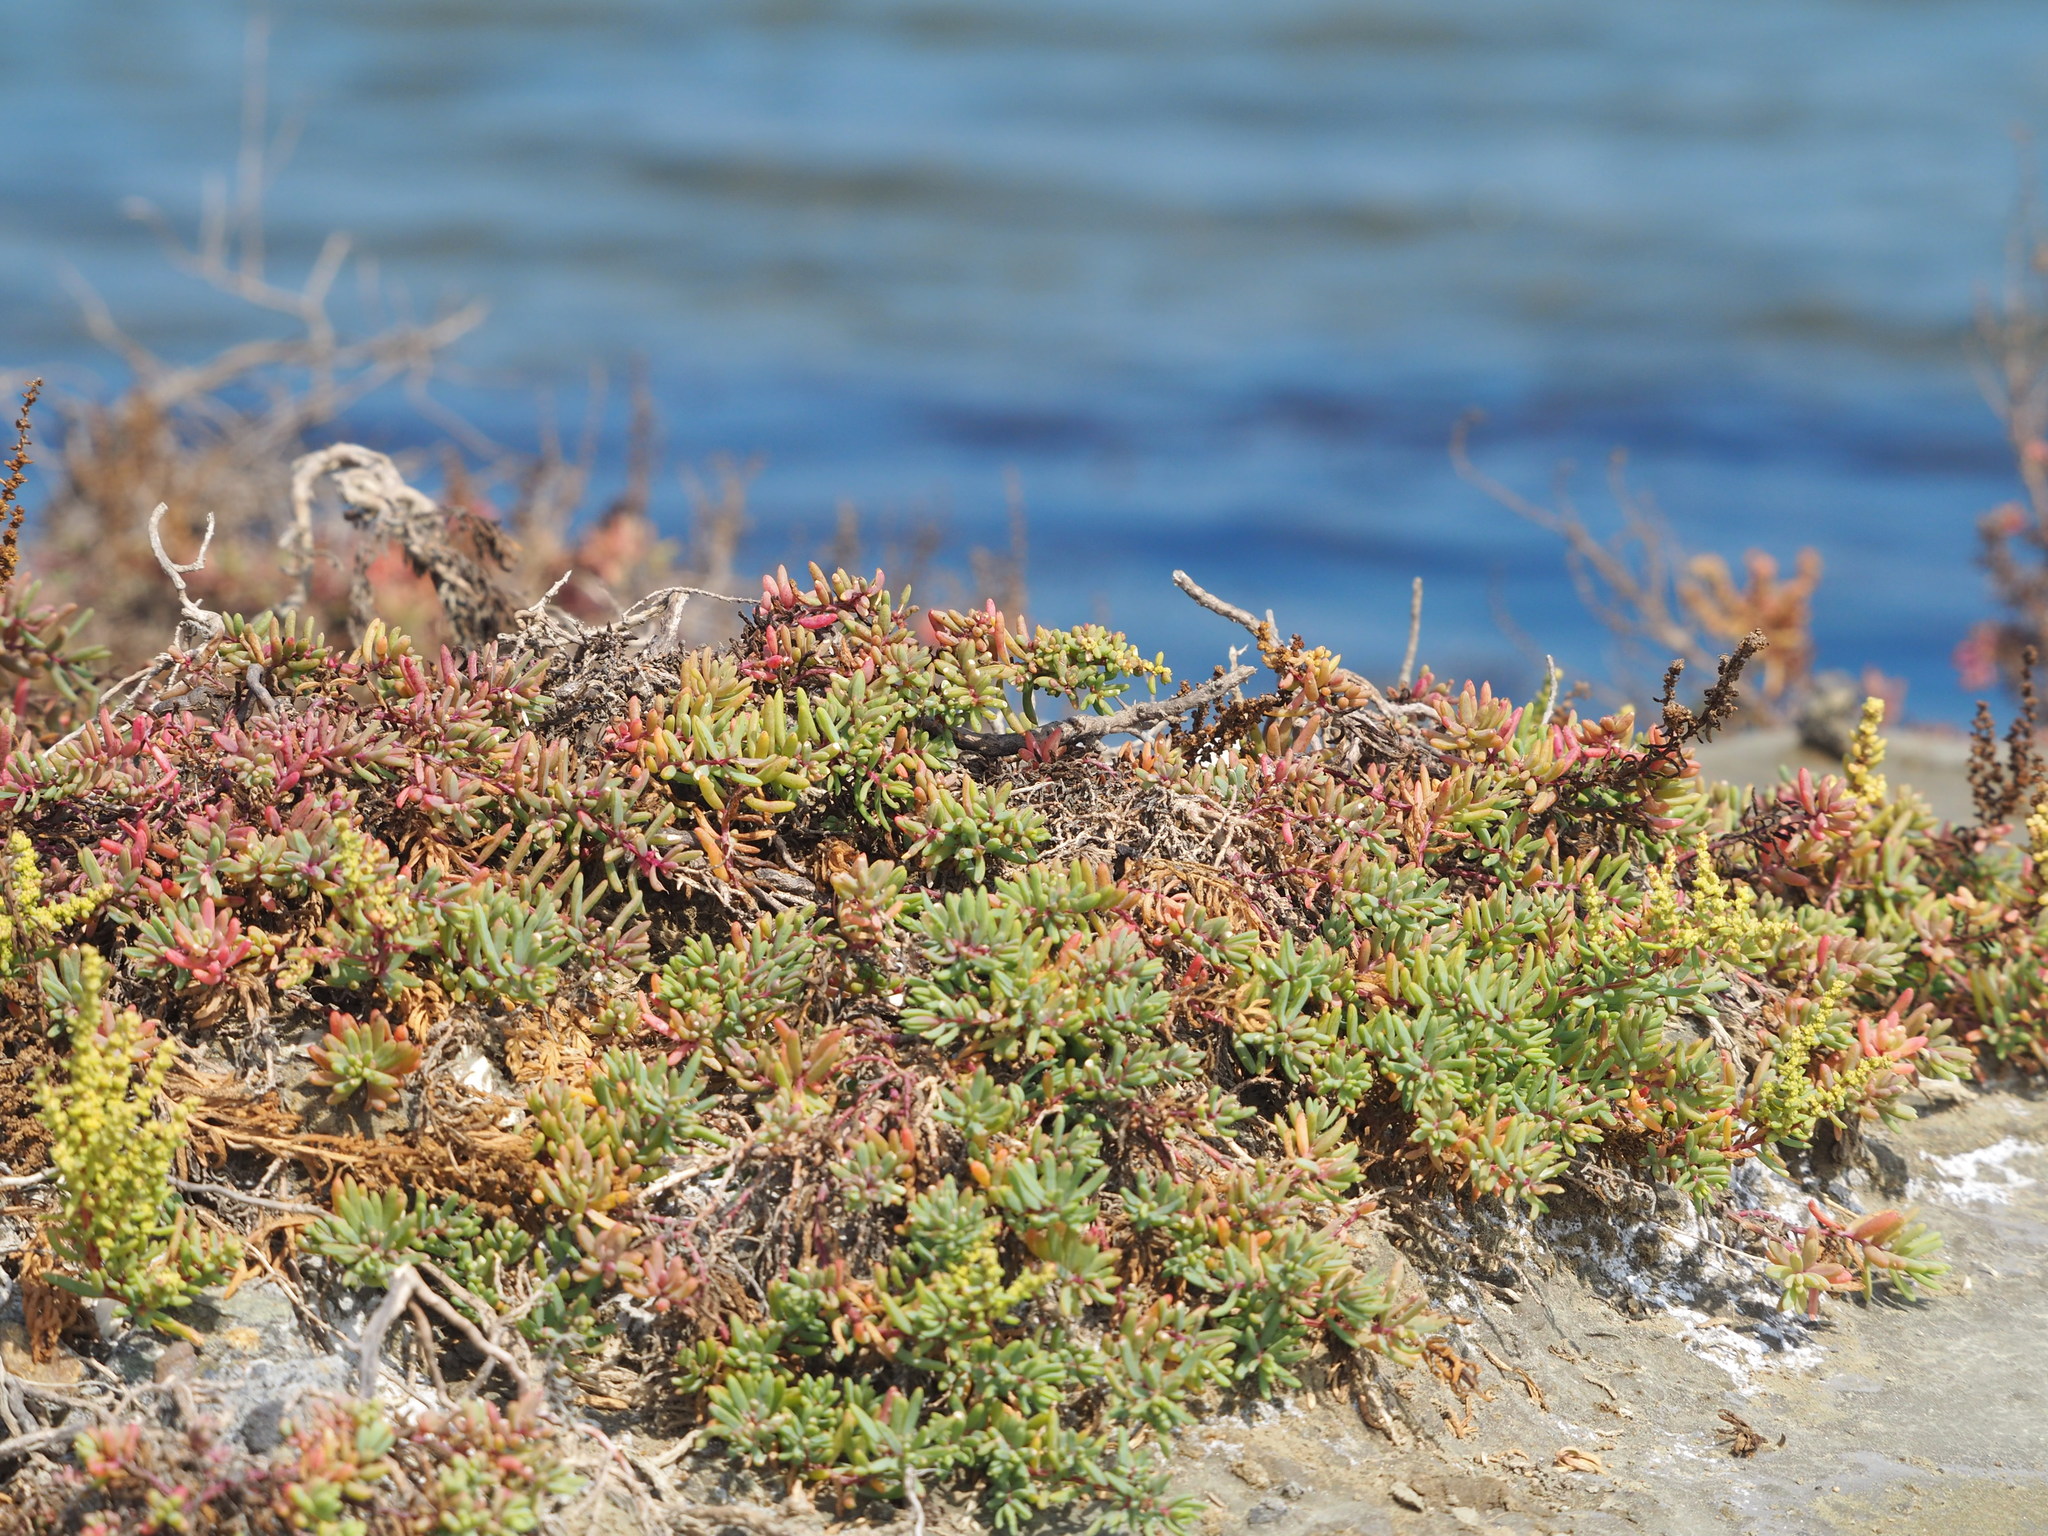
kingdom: Plantae
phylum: Tracheophyta
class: Magnoliopsida
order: Caryophyllales
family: Amaranthaceae
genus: Suaeda
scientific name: Suaeda maritima
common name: Annual sea-blite
